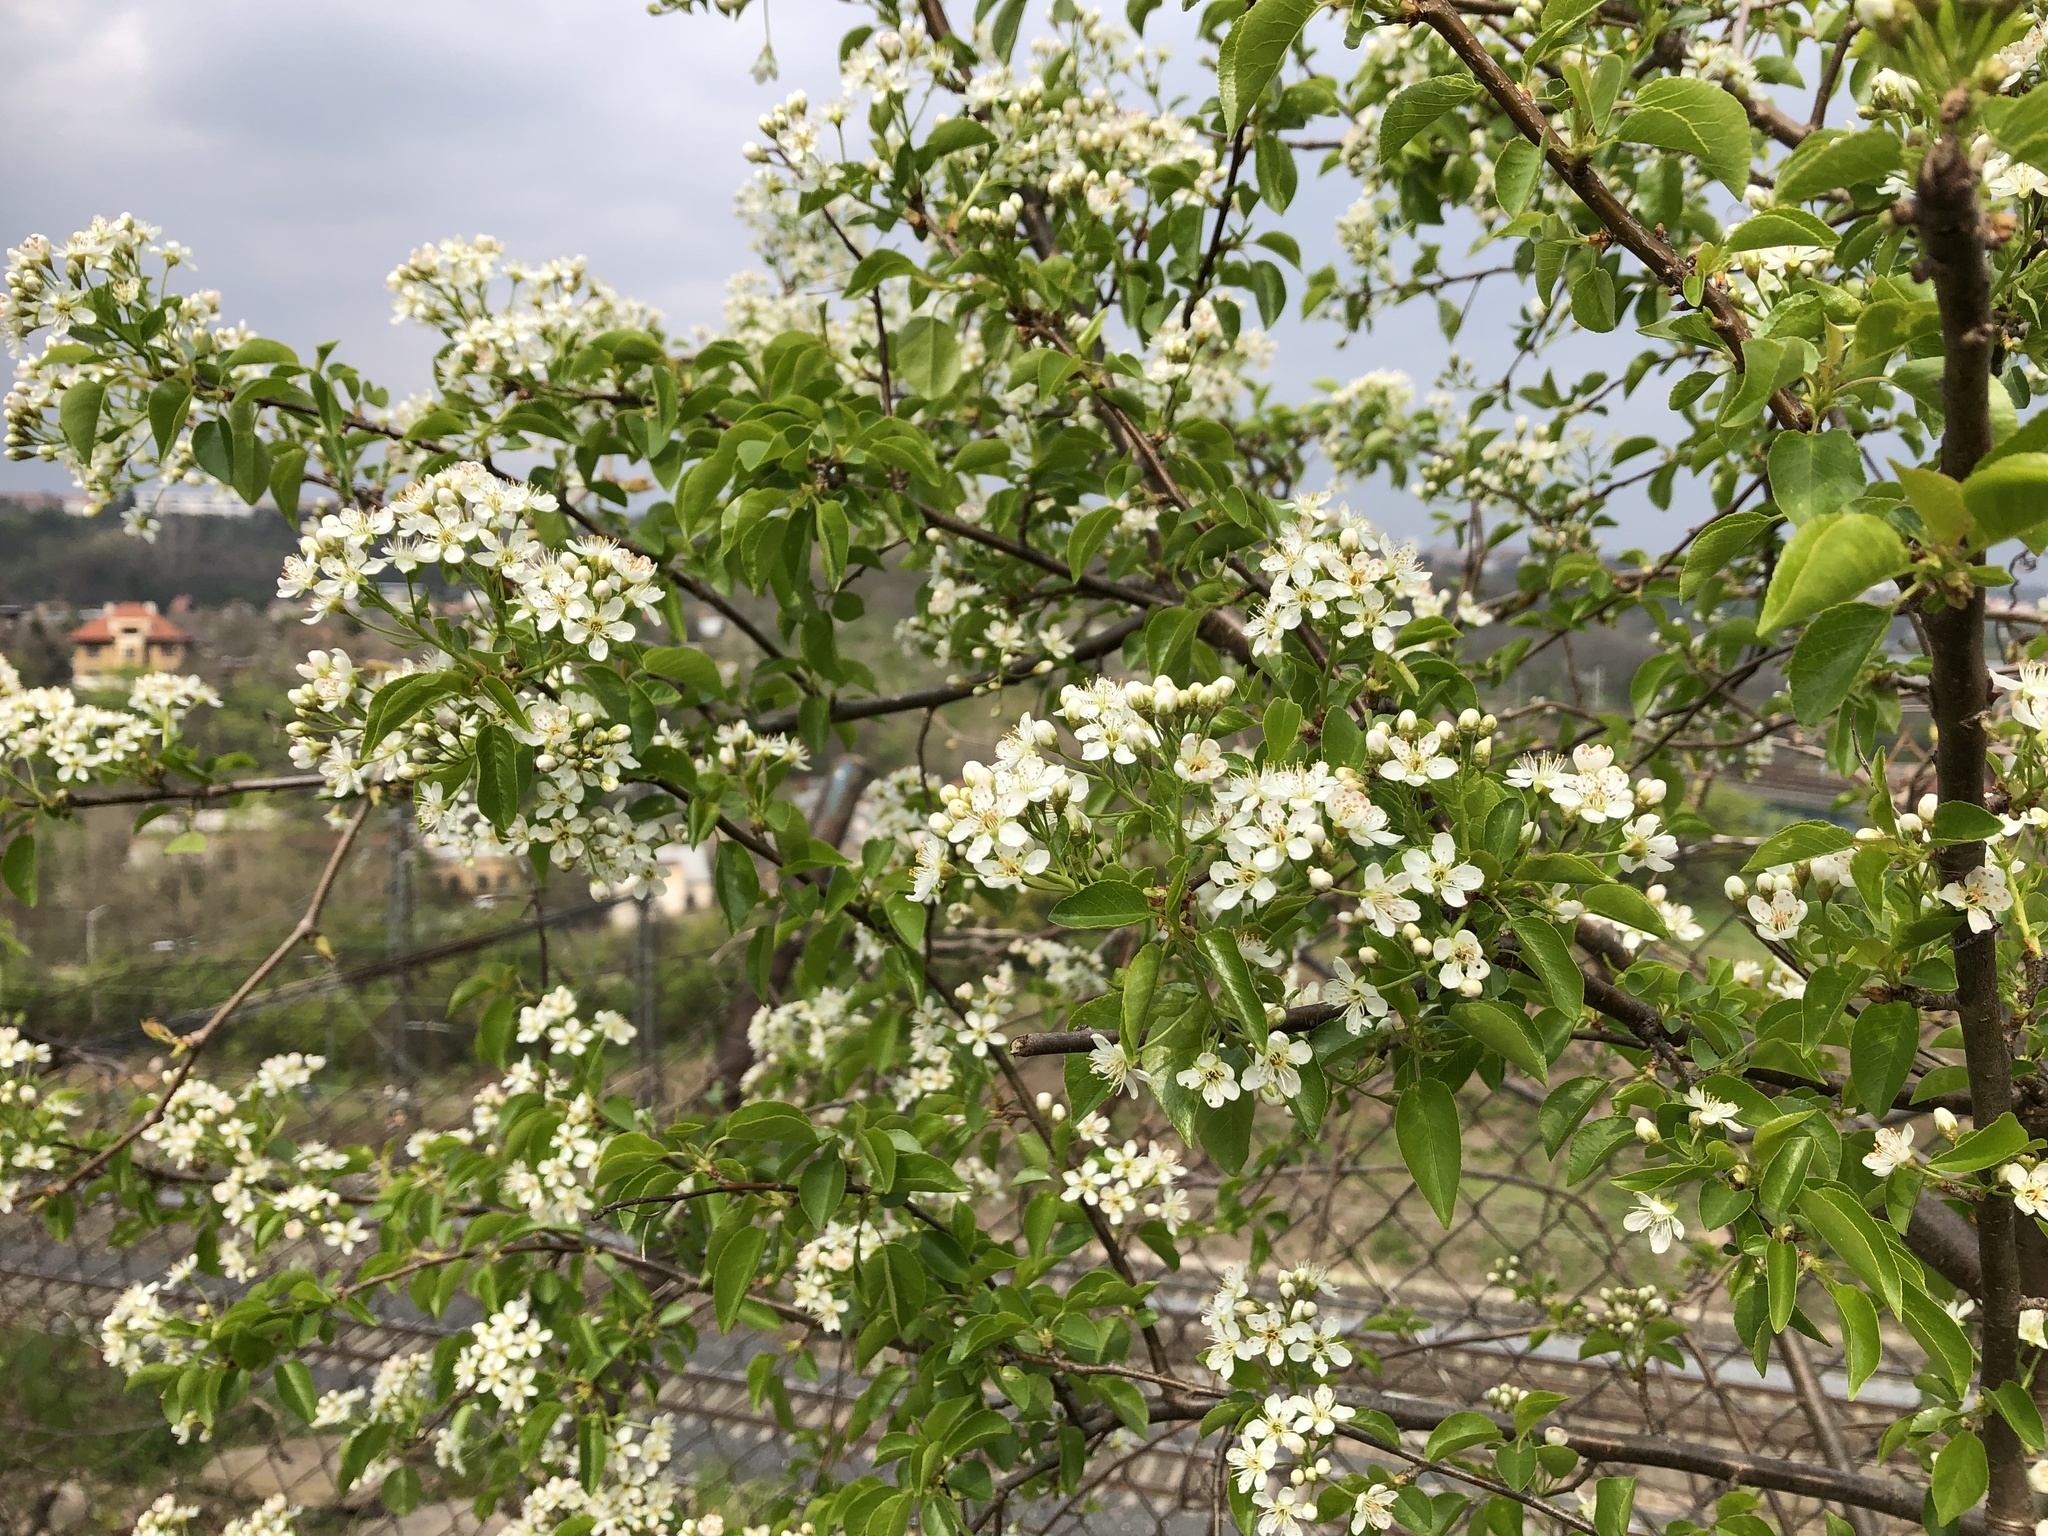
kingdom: Plantae
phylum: Tracheophyta
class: Magnoliopsida
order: Rosales
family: Rosaceae
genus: Prunus
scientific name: Prunus mahaleb
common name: Mahaleb cherry
